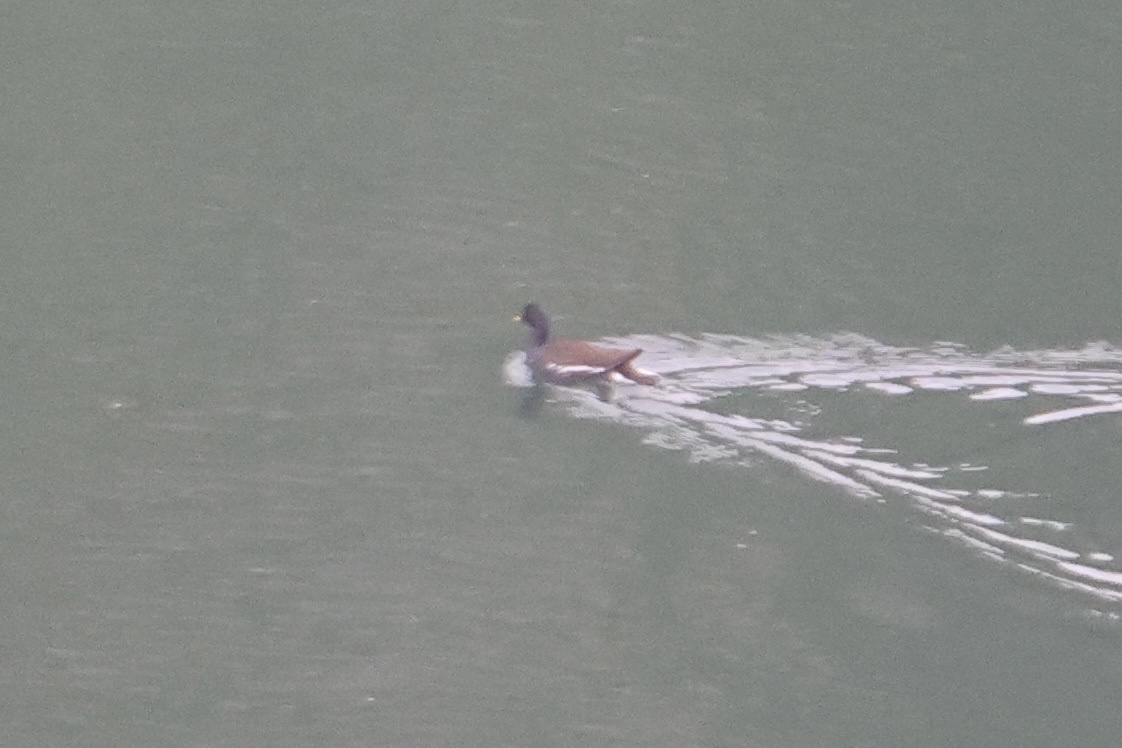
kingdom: Animalia
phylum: Chordata
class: Aves
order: Gruiformes
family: Rallidae
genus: Gallinula
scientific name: Gallinula chloropus
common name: Common moorhen
